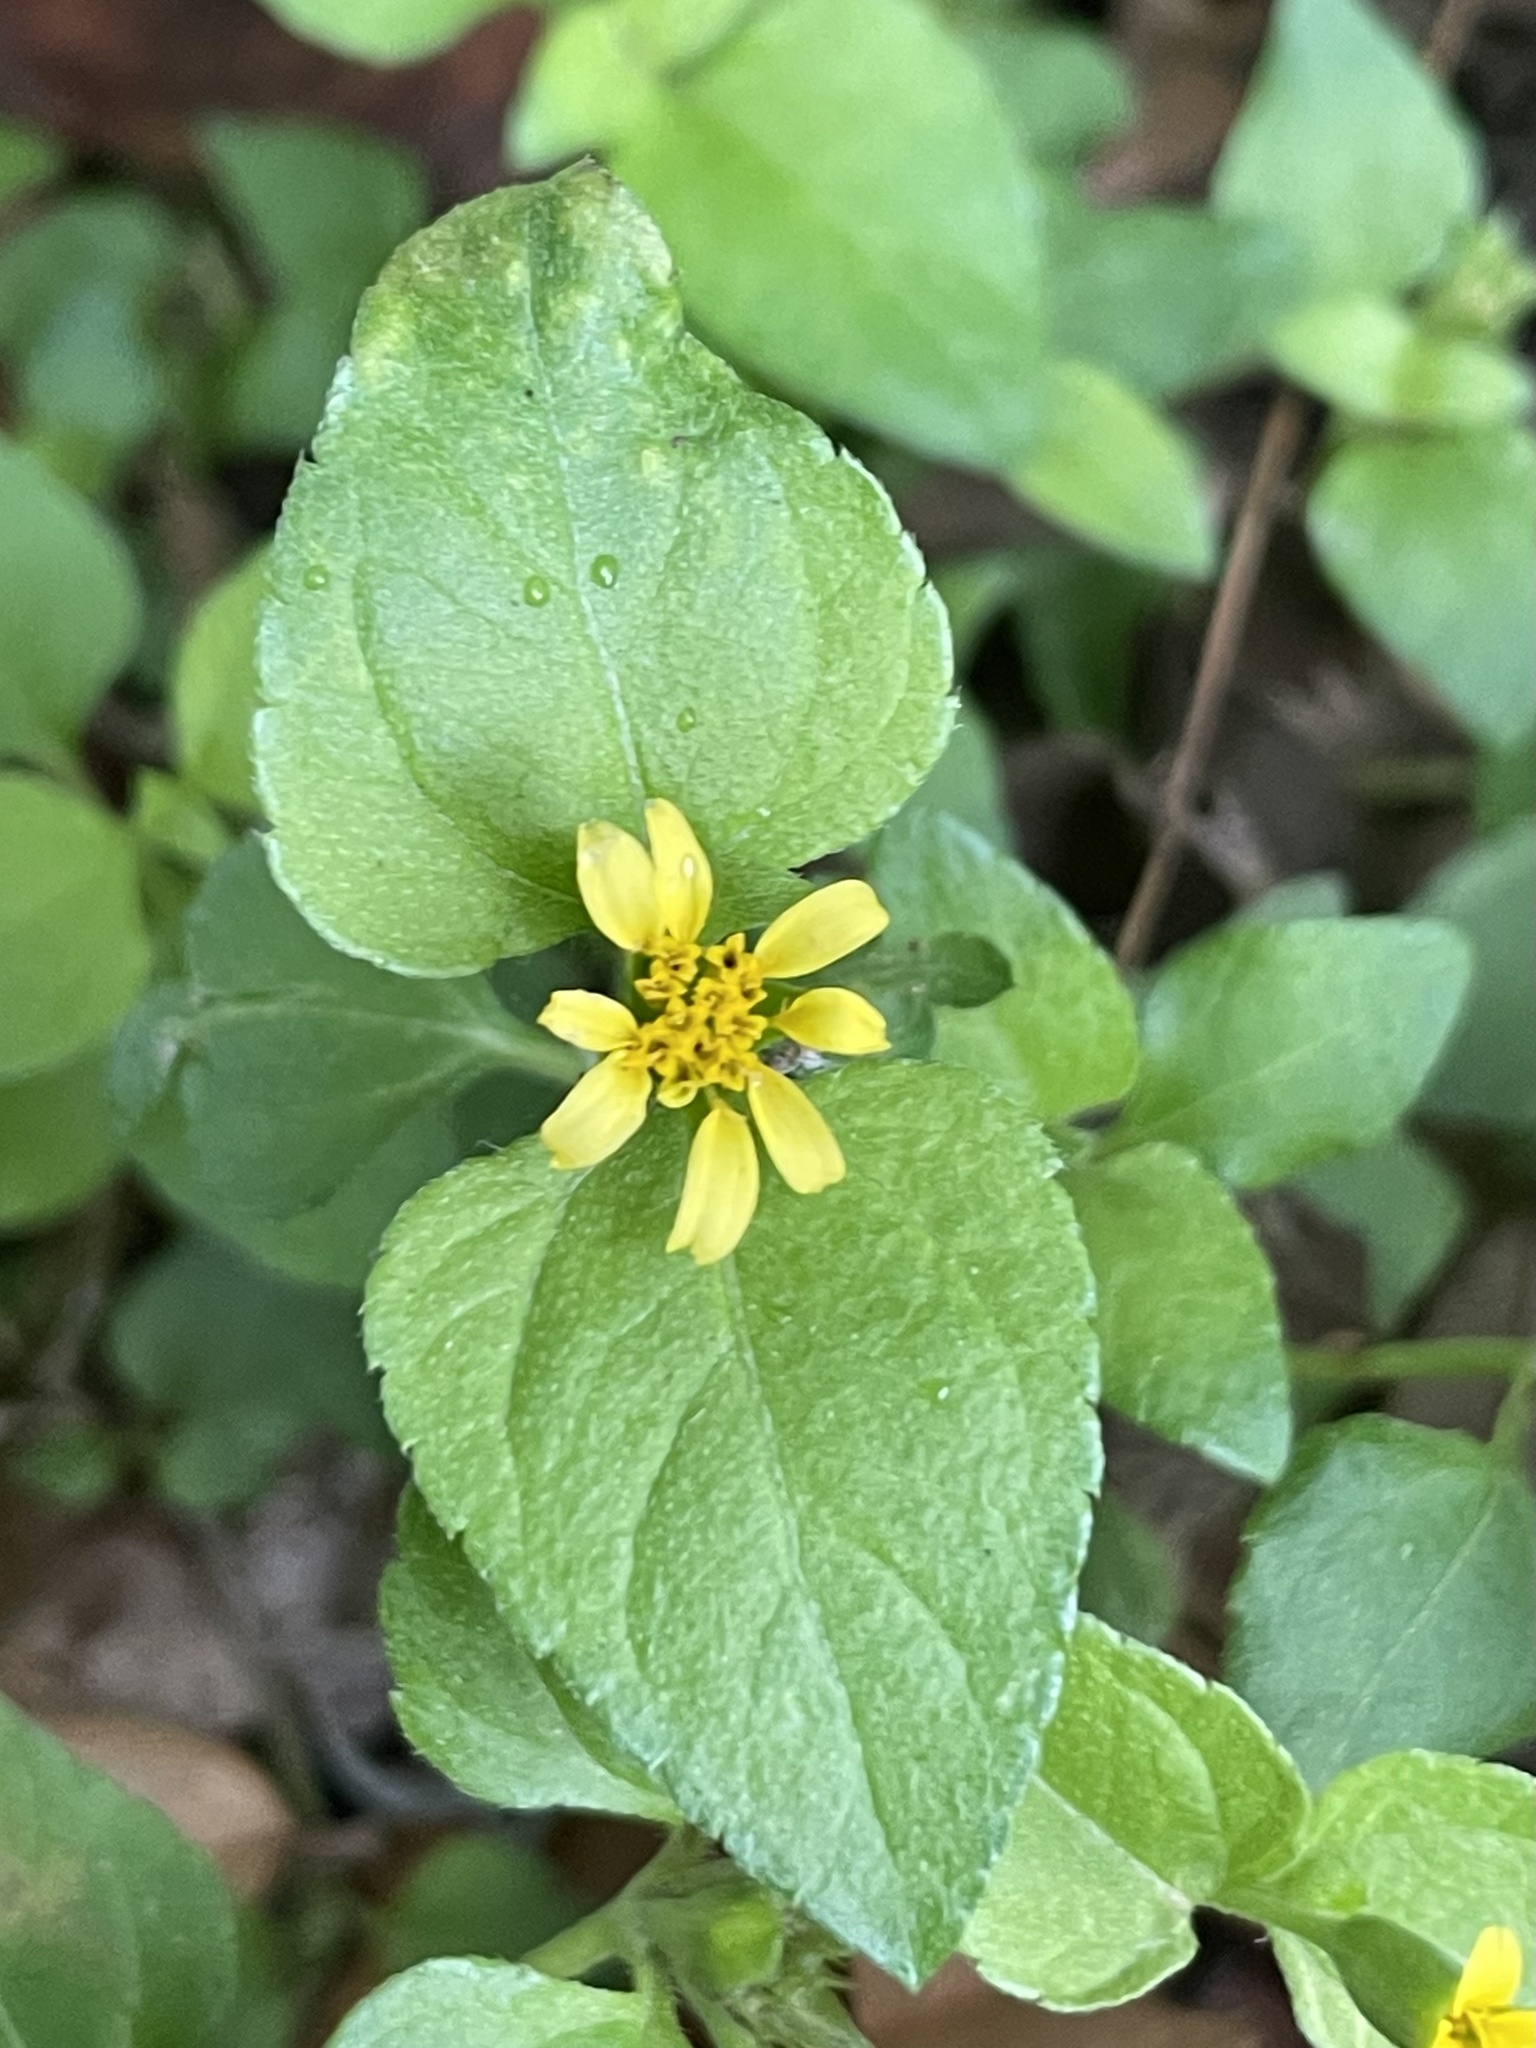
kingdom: Plantae
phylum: Tracheophyta
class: Magnoliopsida
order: Asterales
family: Asteraceae
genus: Calyptocarpus
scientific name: Calyptocarpus vialis
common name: Straggler daisy
